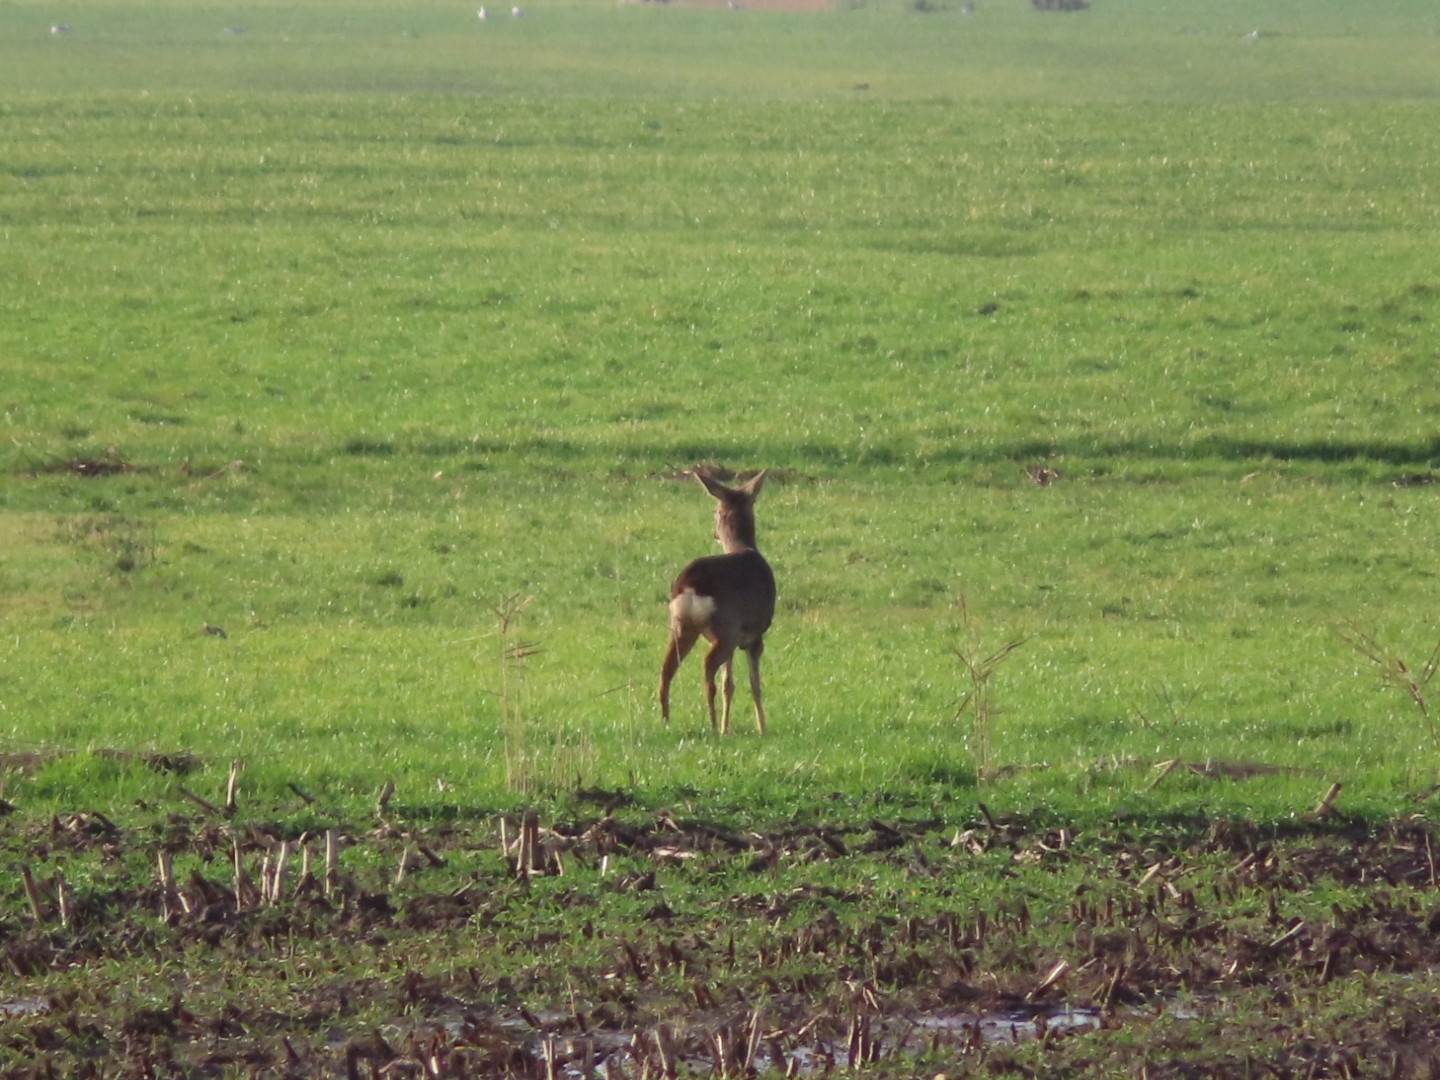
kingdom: Animalia
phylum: Chordata
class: Mammalia
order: Artiodactyla
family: Cervidae
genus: Capreolus
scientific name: Capreolus capreolus
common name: Western roe deer
